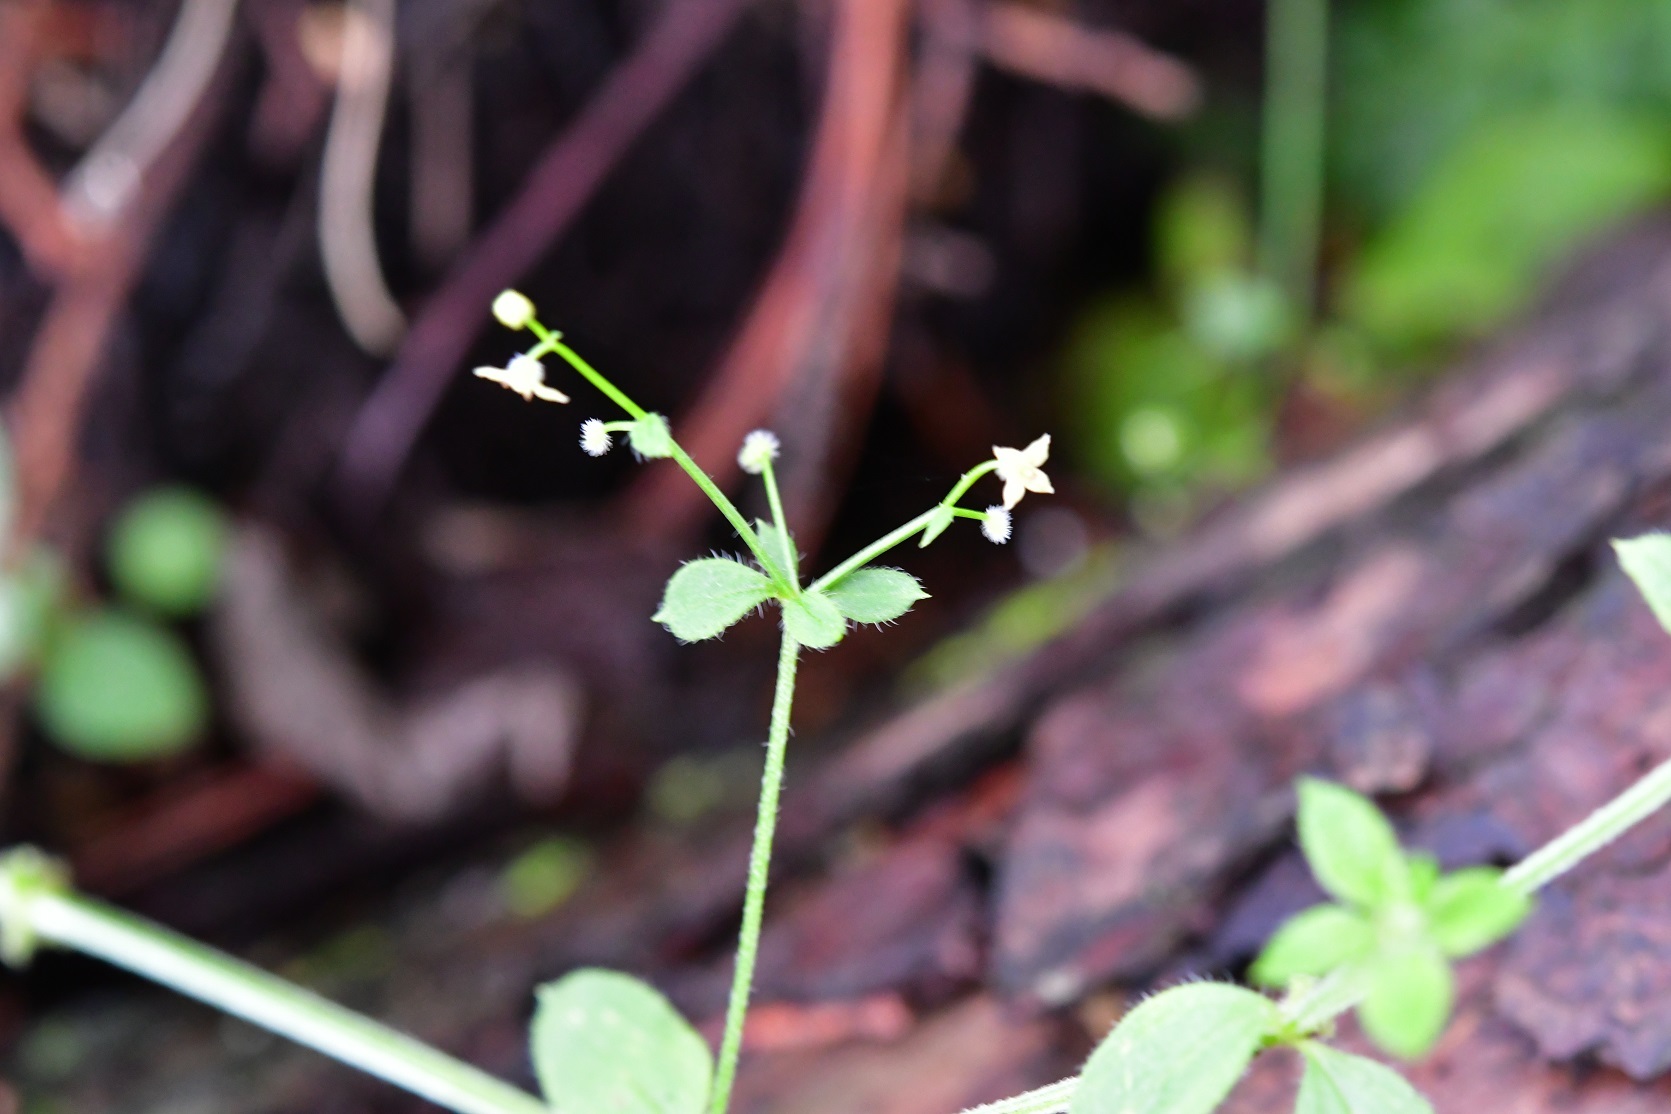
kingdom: Plantae
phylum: Tracheophyta
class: Magnoliopsida
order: Gentianales
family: Rubiaceae
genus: Galium
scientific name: Galium aschenbornii
